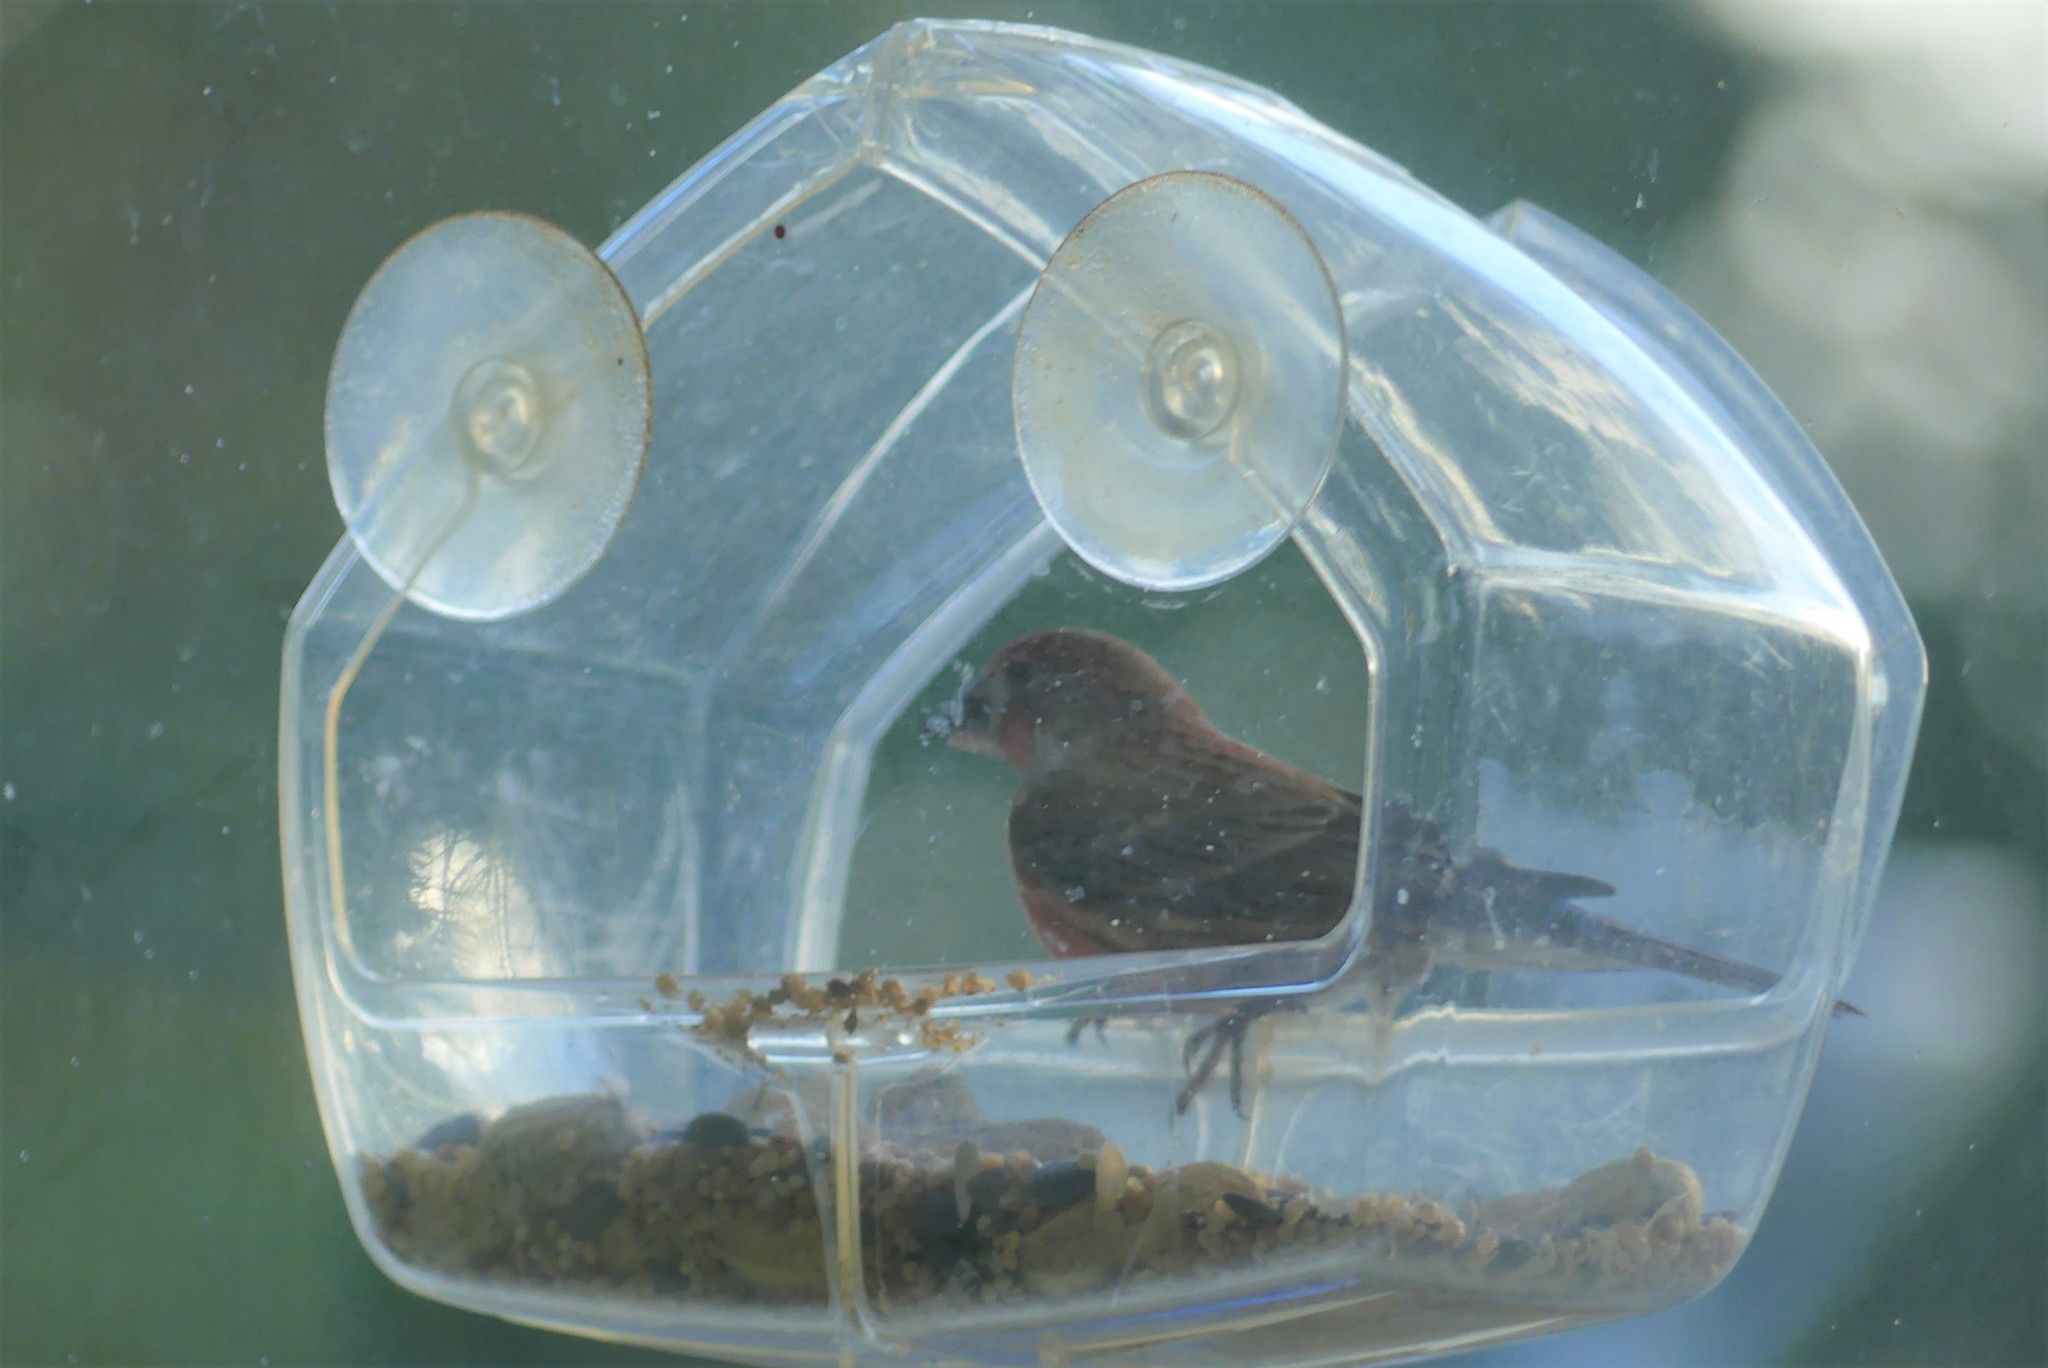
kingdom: Animalia
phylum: Chordata
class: Aves
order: Passeriformes
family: Fringillidae
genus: Haemorhous
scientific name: Haemorhous mexicanus
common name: House finch
